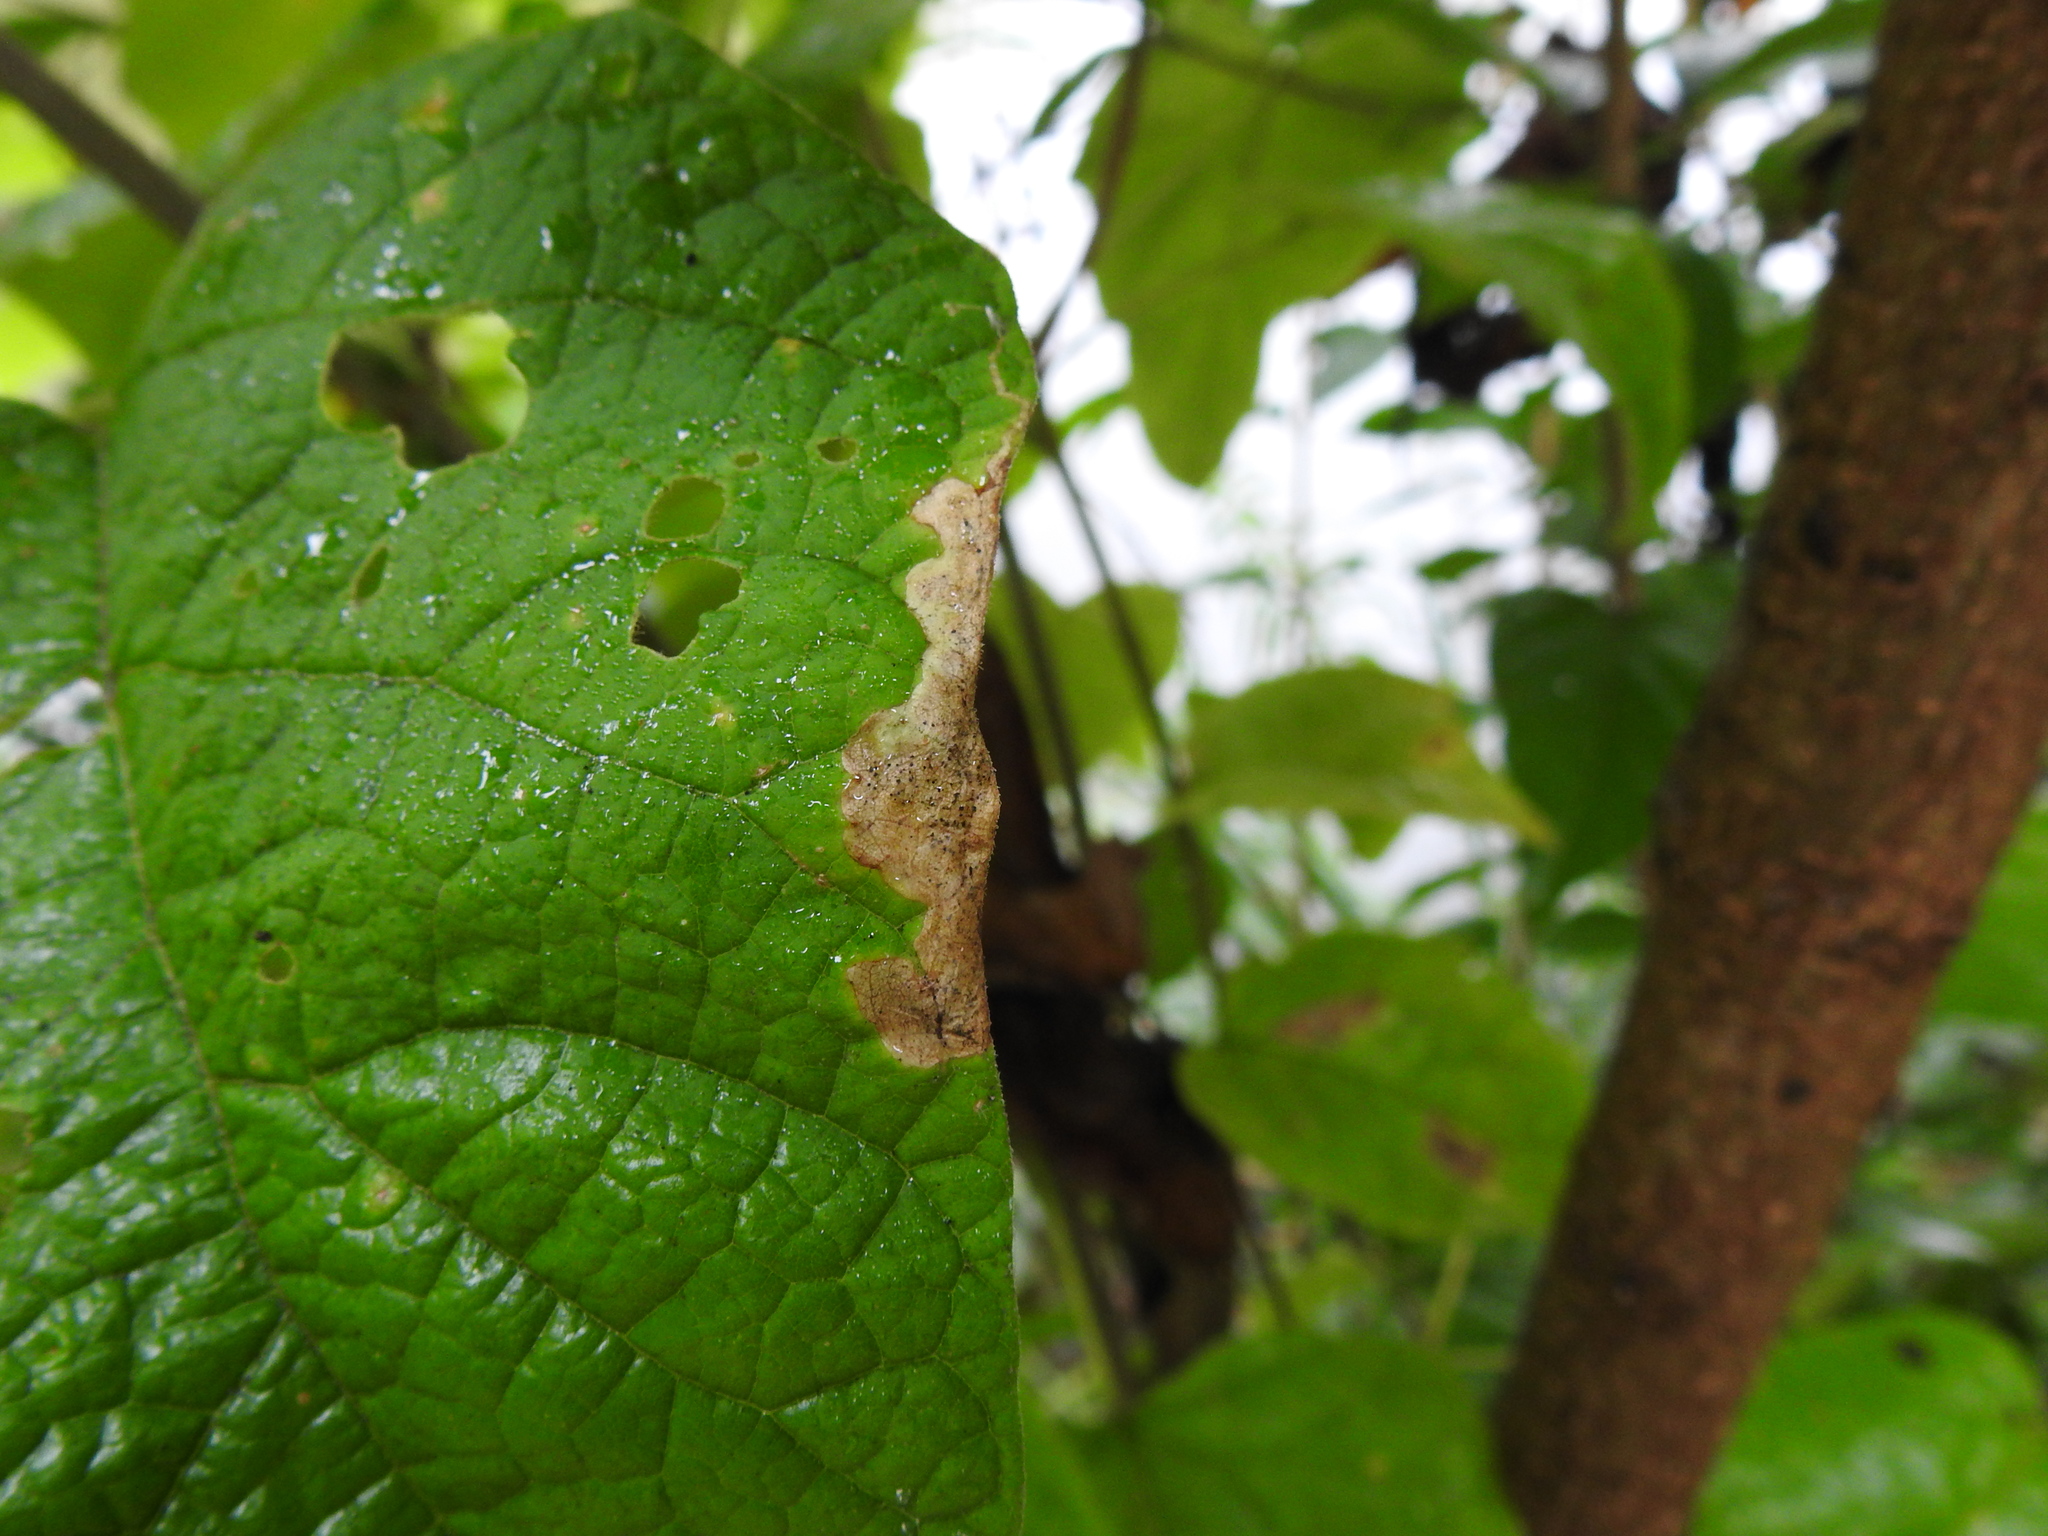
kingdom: Animalia
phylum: Arthropoda
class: Insecta
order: Diptera
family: Agromyzidae
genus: Amauromyza
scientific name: Amauromyza pleuralis
